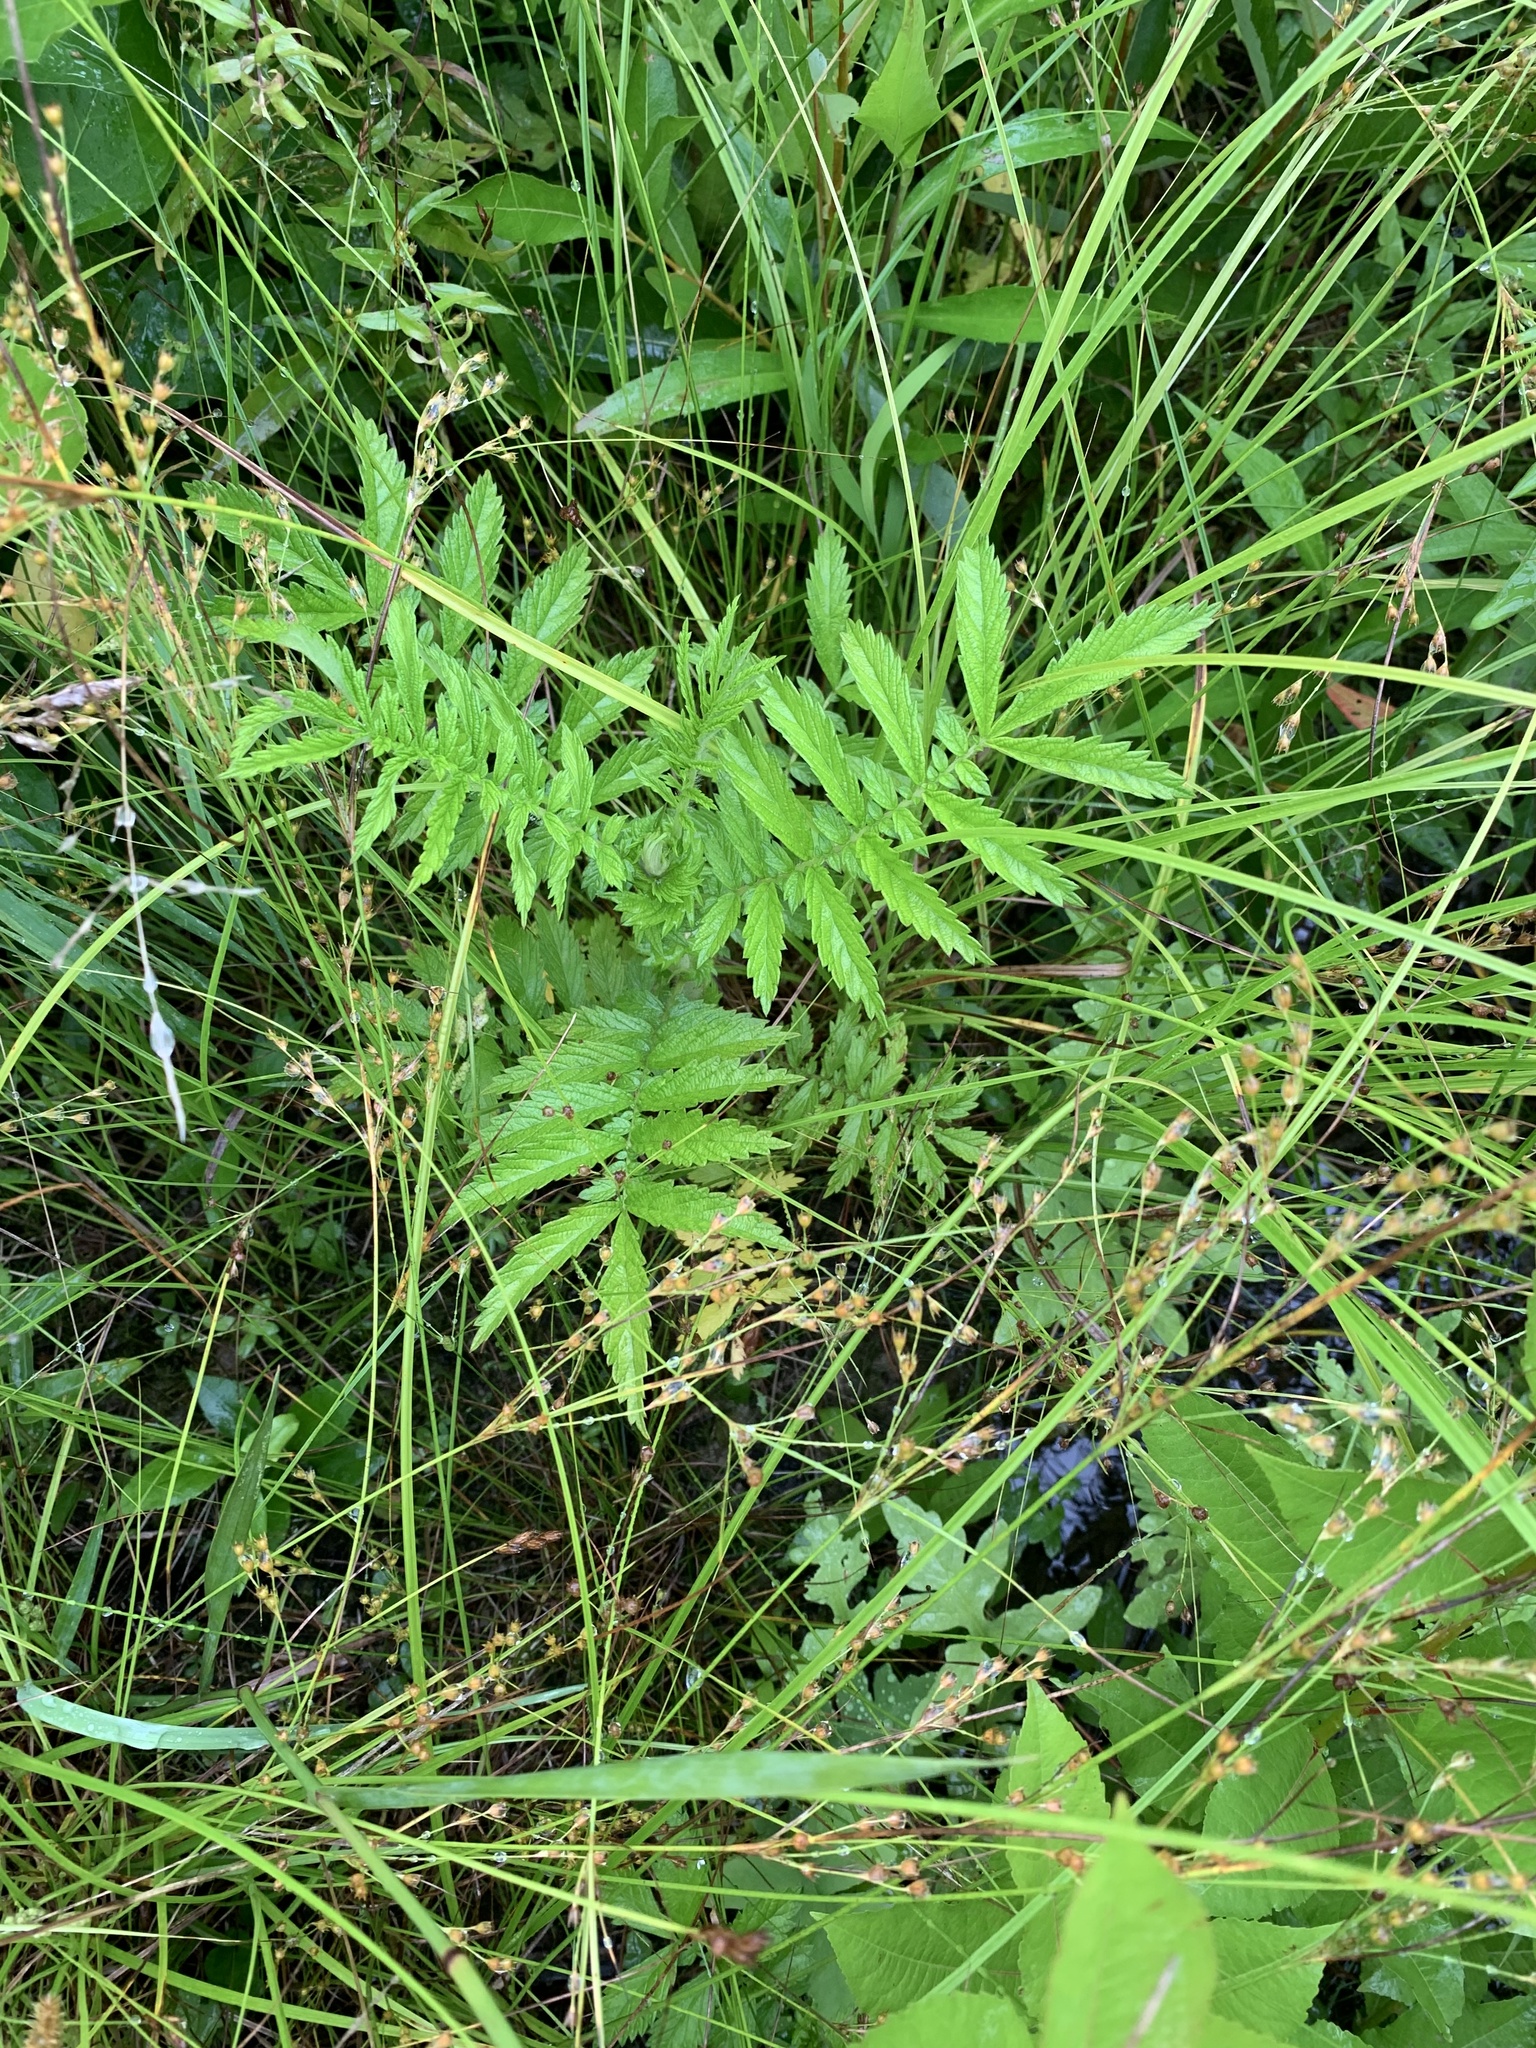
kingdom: Plantae
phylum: Tracheophyta
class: Magnoliopsida
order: Rosales
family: Rosaceae
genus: Agrimonia
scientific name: Agrimonia parviflora
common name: Harvest-lice
